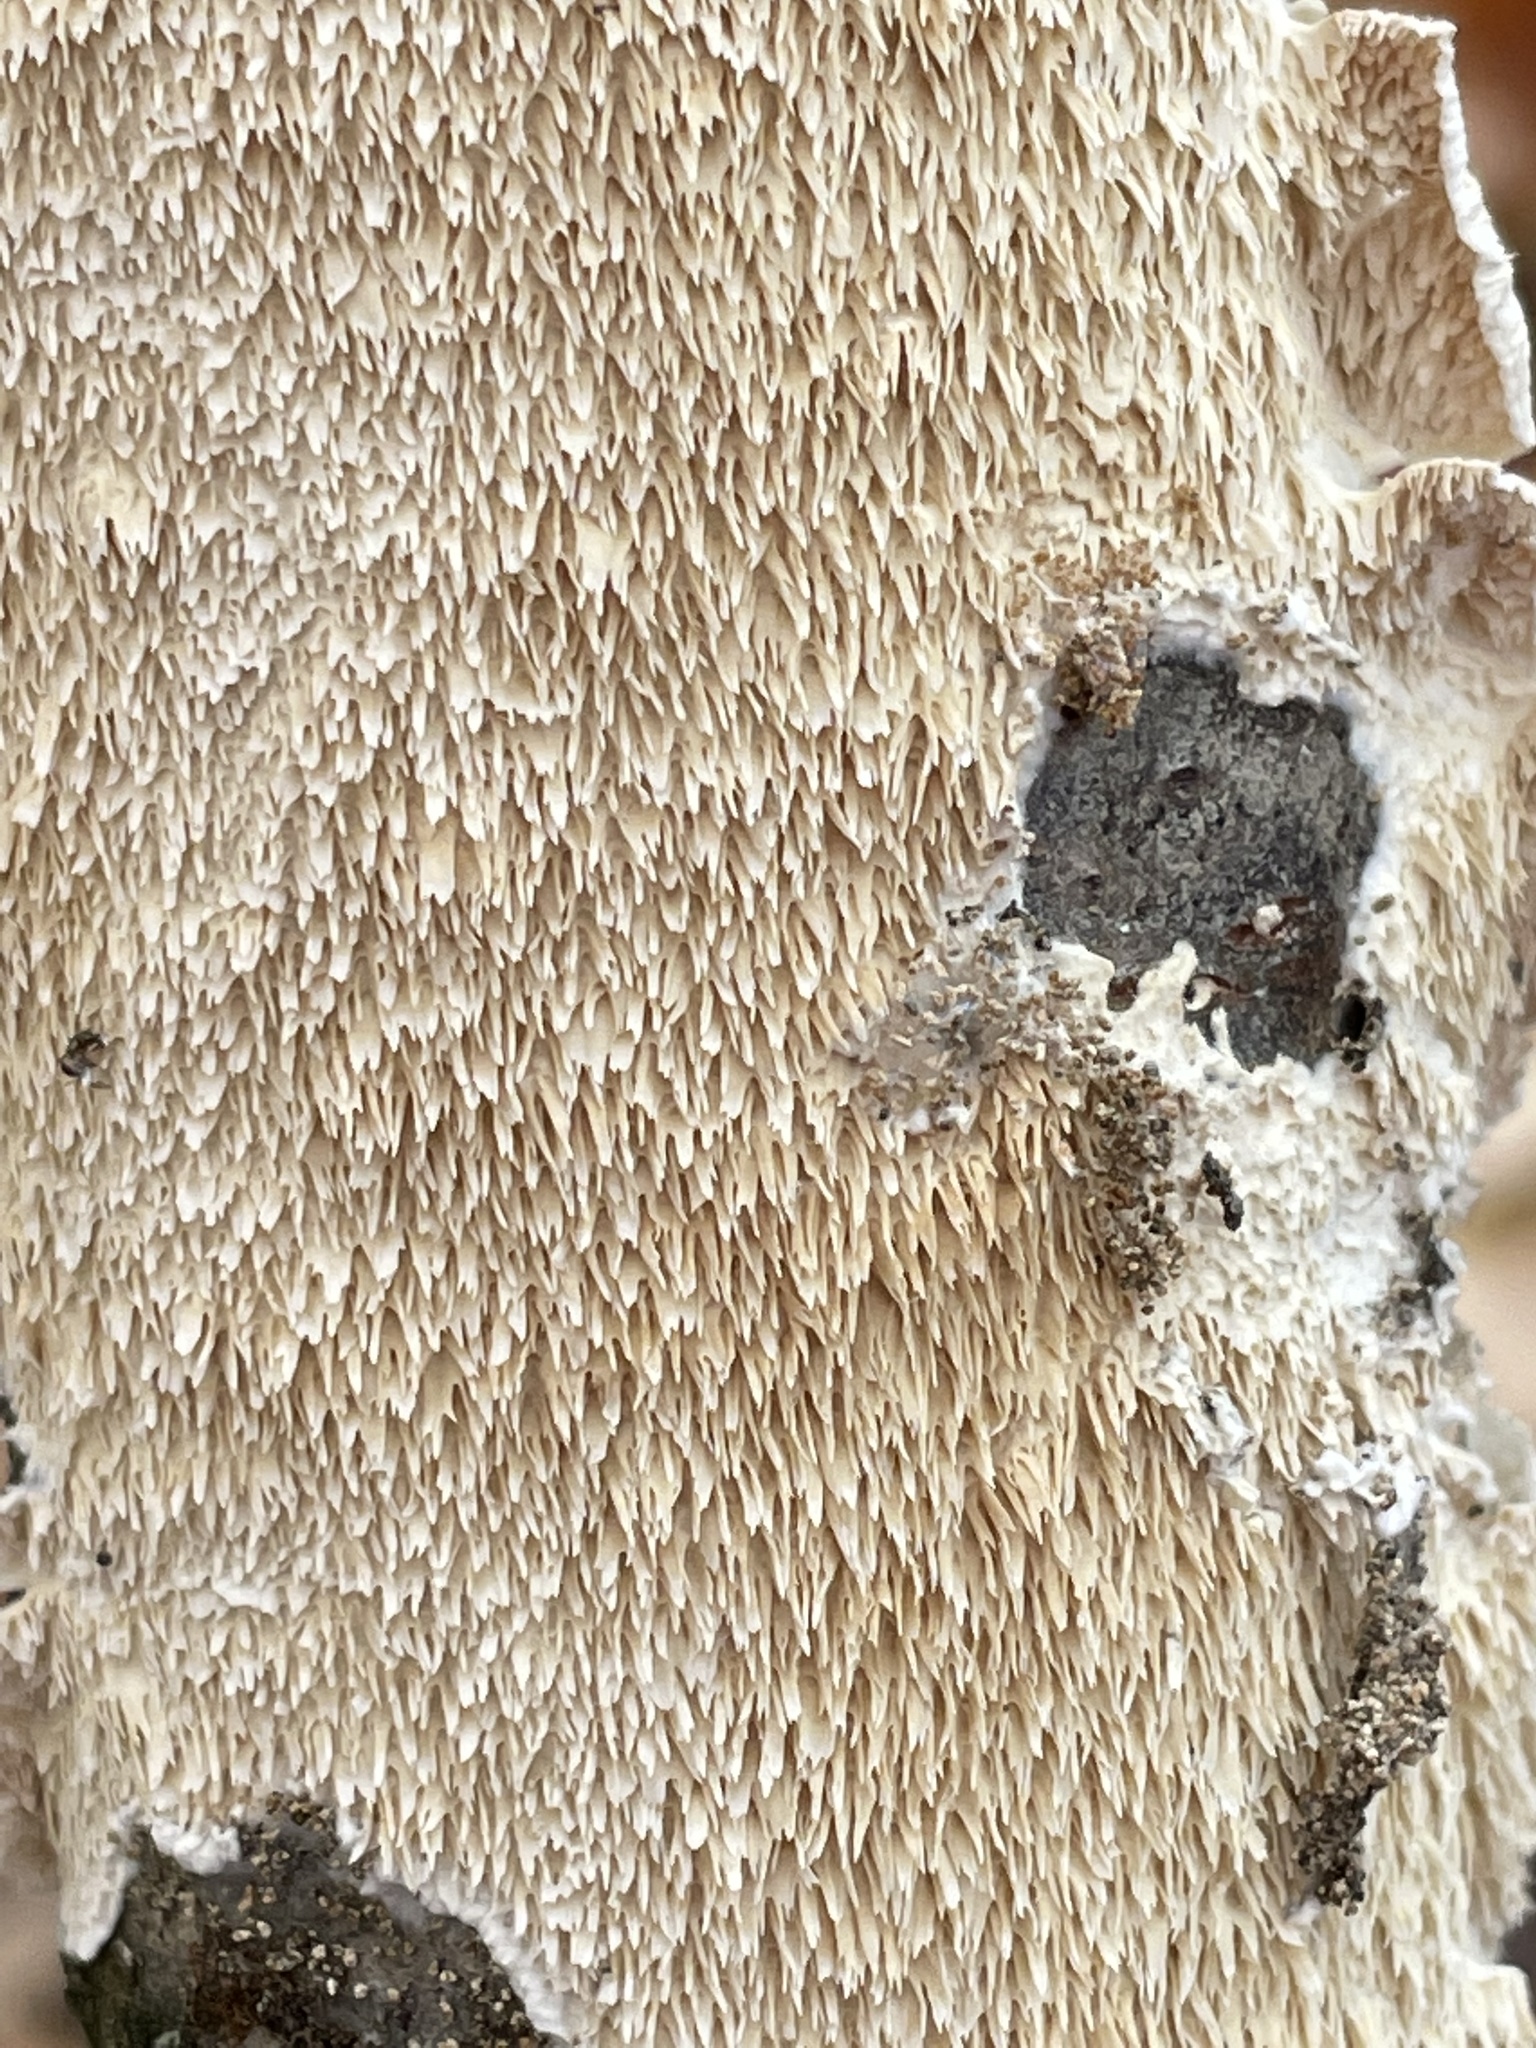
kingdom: Fungi
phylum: Basidiomycota
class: Agaricomycetes
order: Polyporales
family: Irpicaceae
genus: Irpex
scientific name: Irpex lacteus
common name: Milk-white toothed polypore
